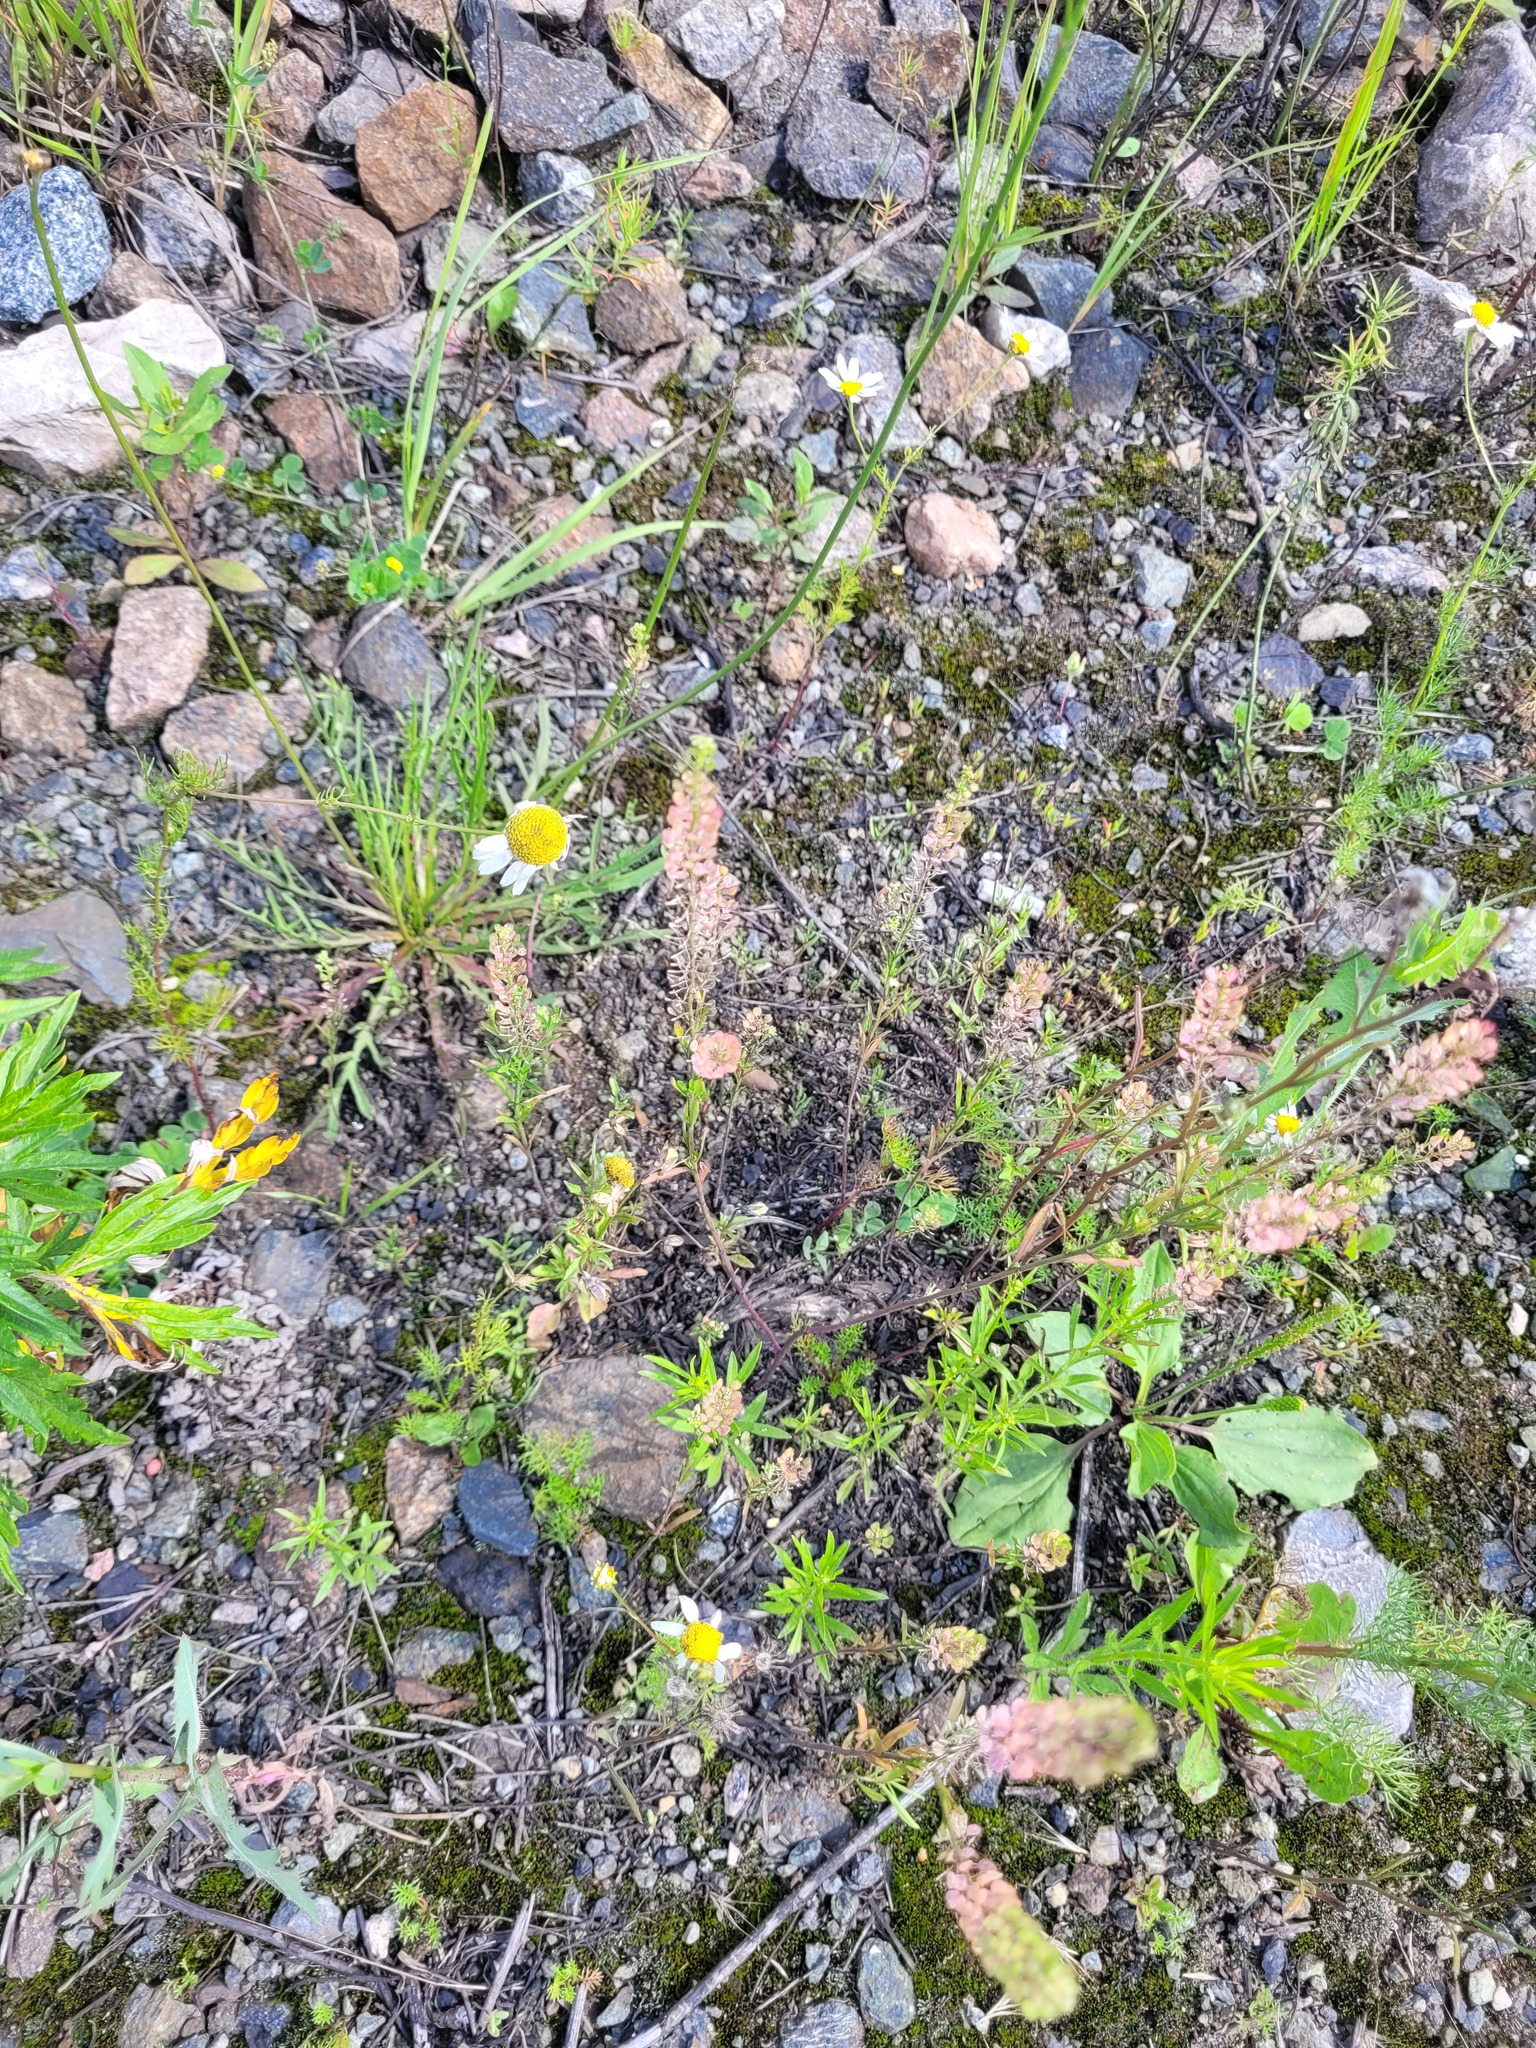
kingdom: Plantae
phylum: Tracheophyta
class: Magnoliopsida
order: Brassicales
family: Brassicaceae
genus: Lepidium
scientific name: Lepidium densiflorum
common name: Miner's pepperwort
